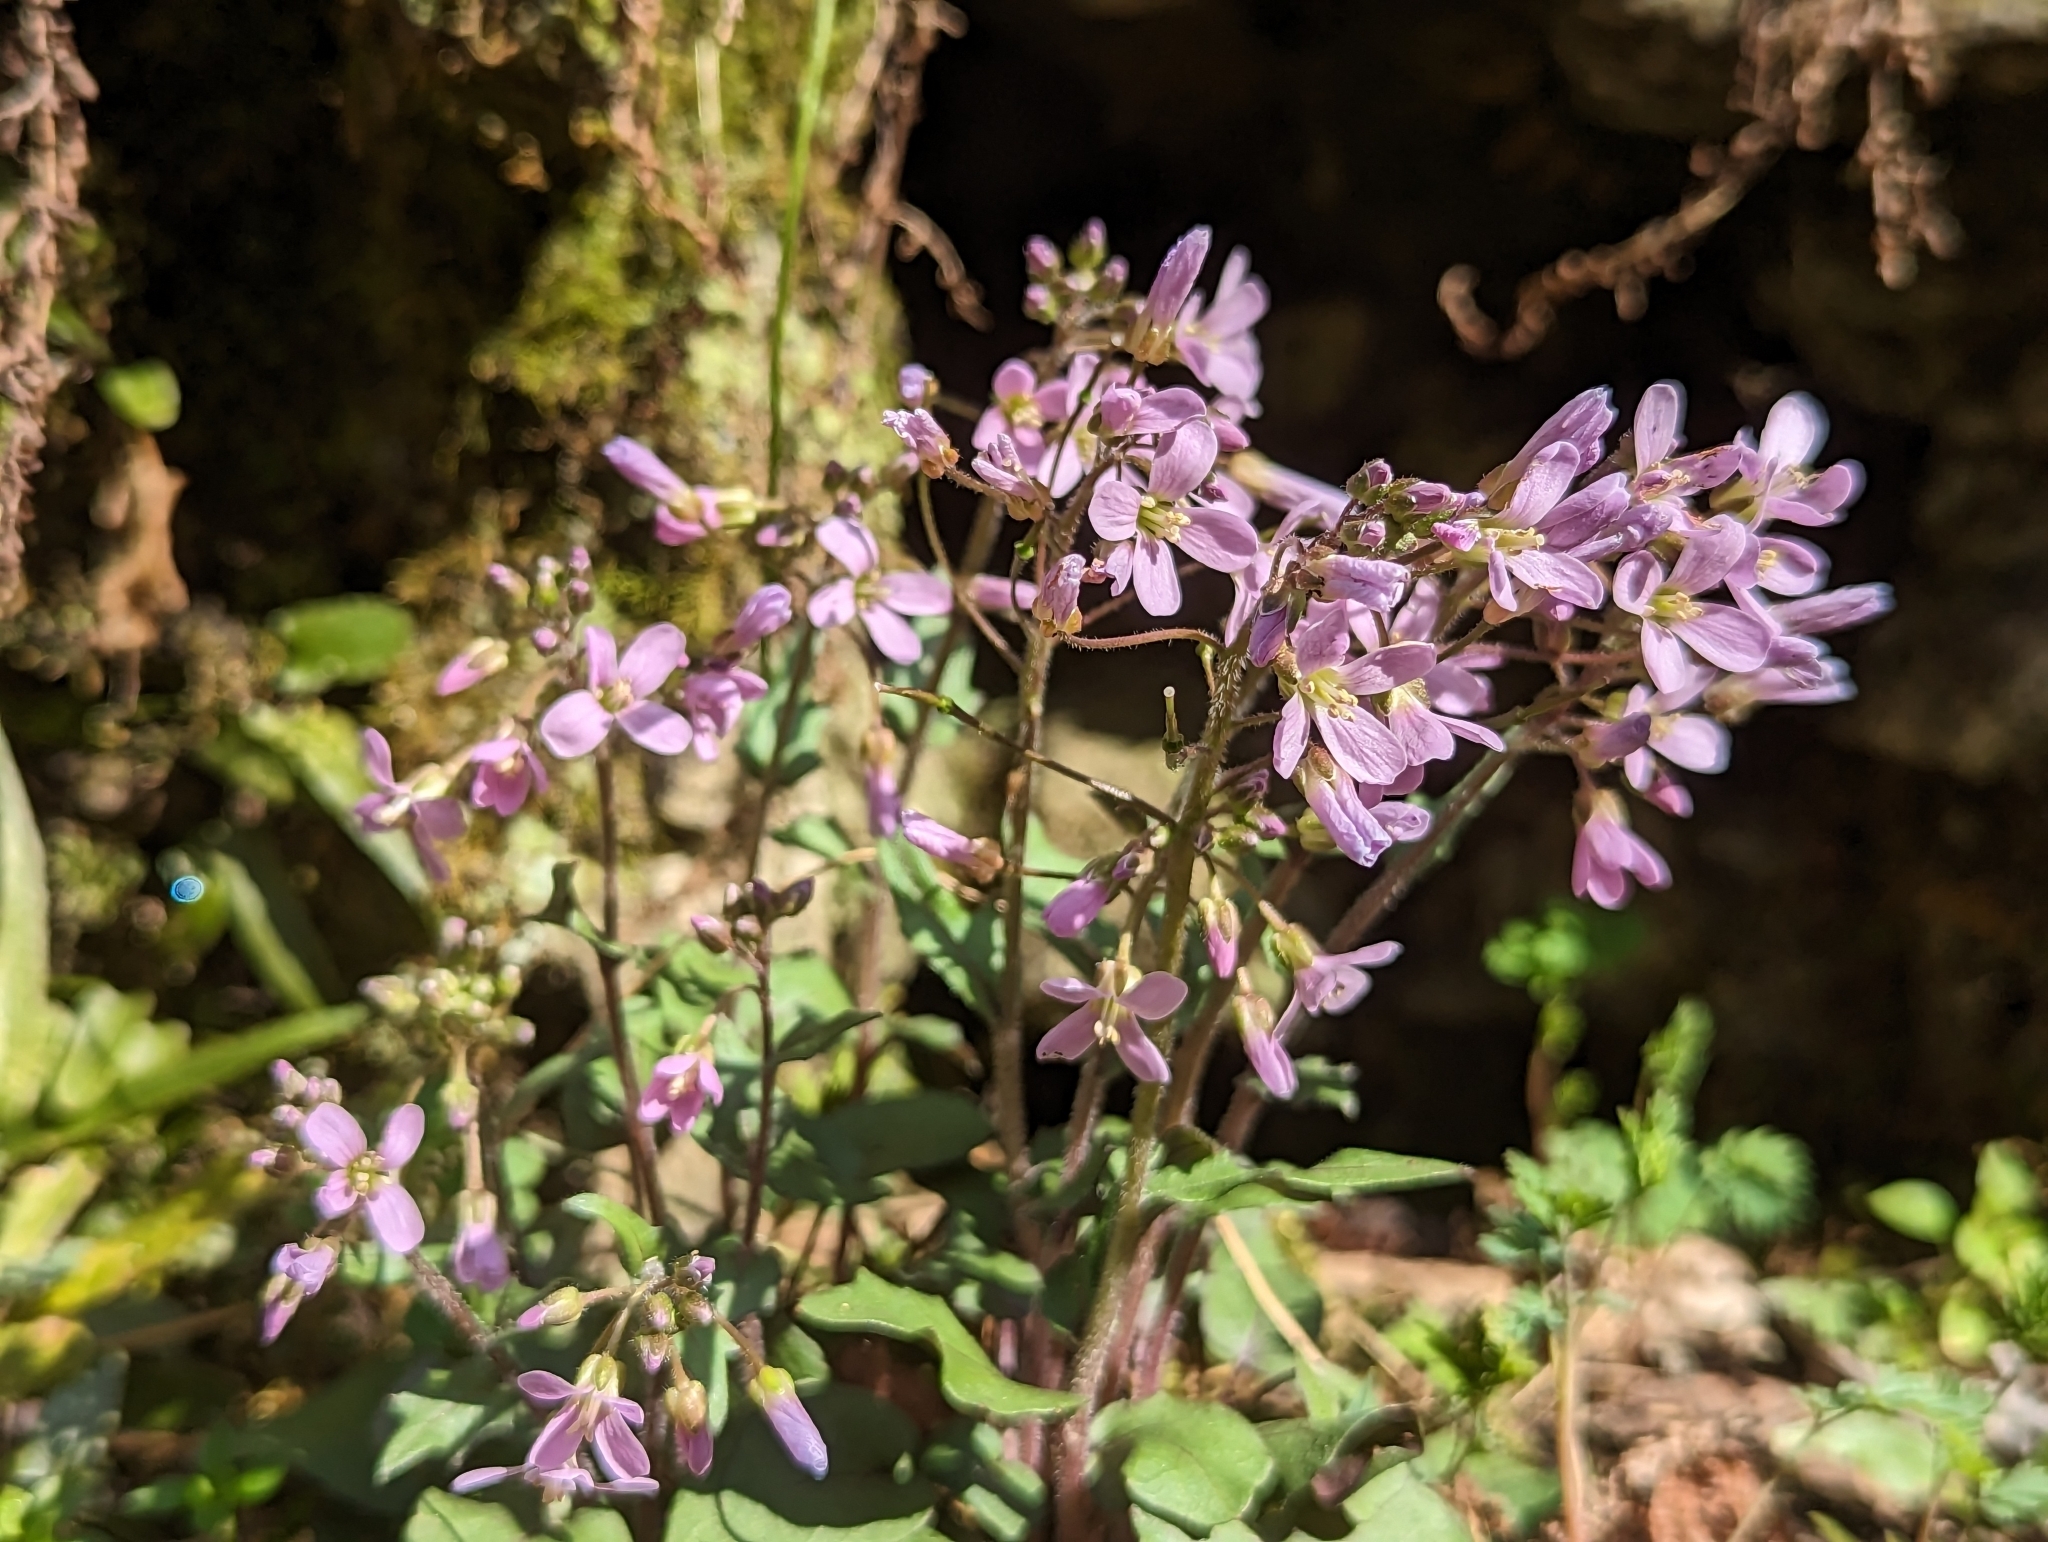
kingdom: Plantae
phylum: Tracheophyta
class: Magnoliopsida
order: Brassicales
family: Brassicaceae
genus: Cardamine
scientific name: Cardamine douglassii
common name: Purple cress
